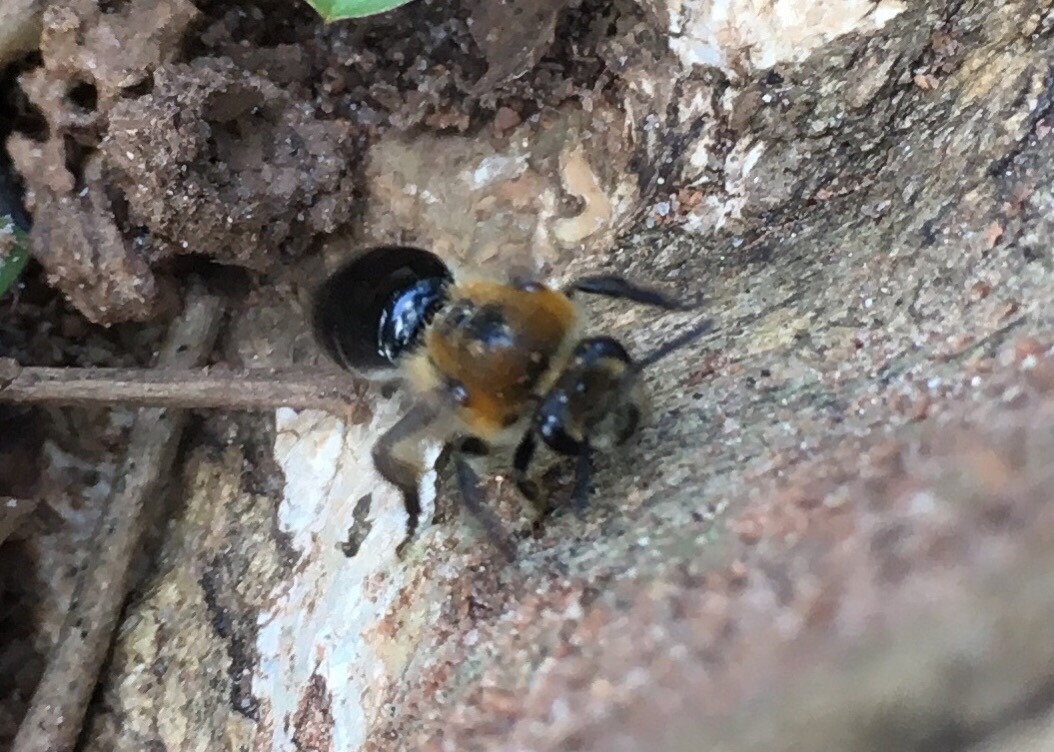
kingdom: Animalia
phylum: Arthropoda
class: Insecta
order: Hymenoptera
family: Colletidae
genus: Colletes
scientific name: Colletes thoracicus
